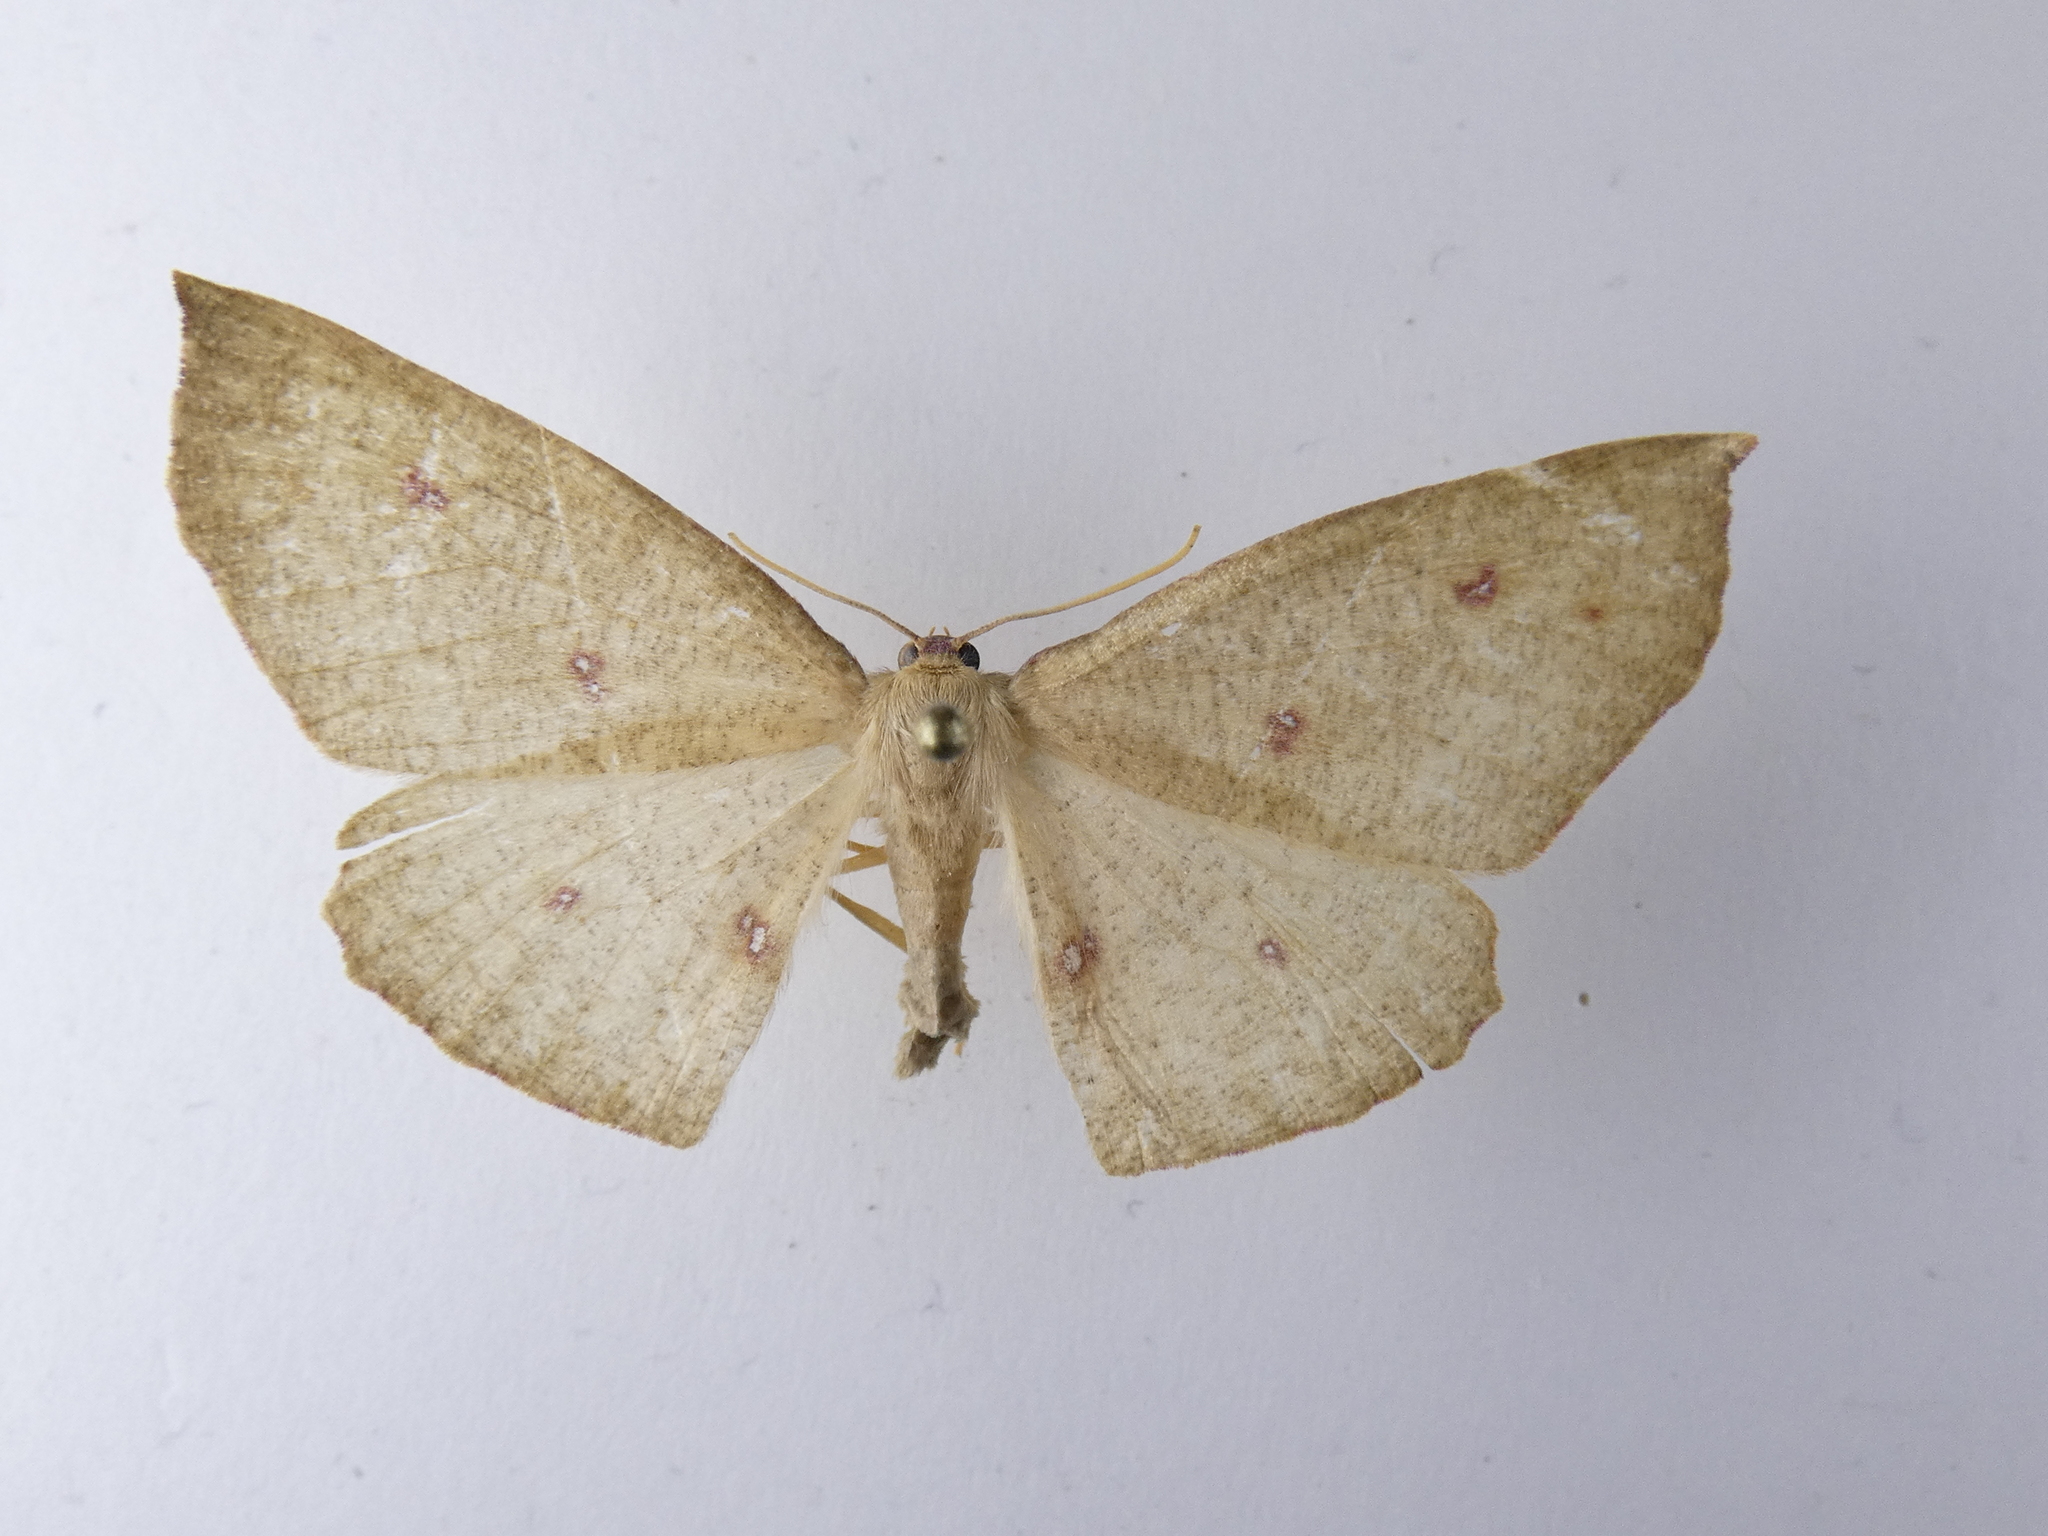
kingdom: Animalia
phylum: Arthropoda
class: Insecta
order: Lepidoptera
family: Geometridae
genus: Xyridacma
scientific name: Xyridacma alectoraria
